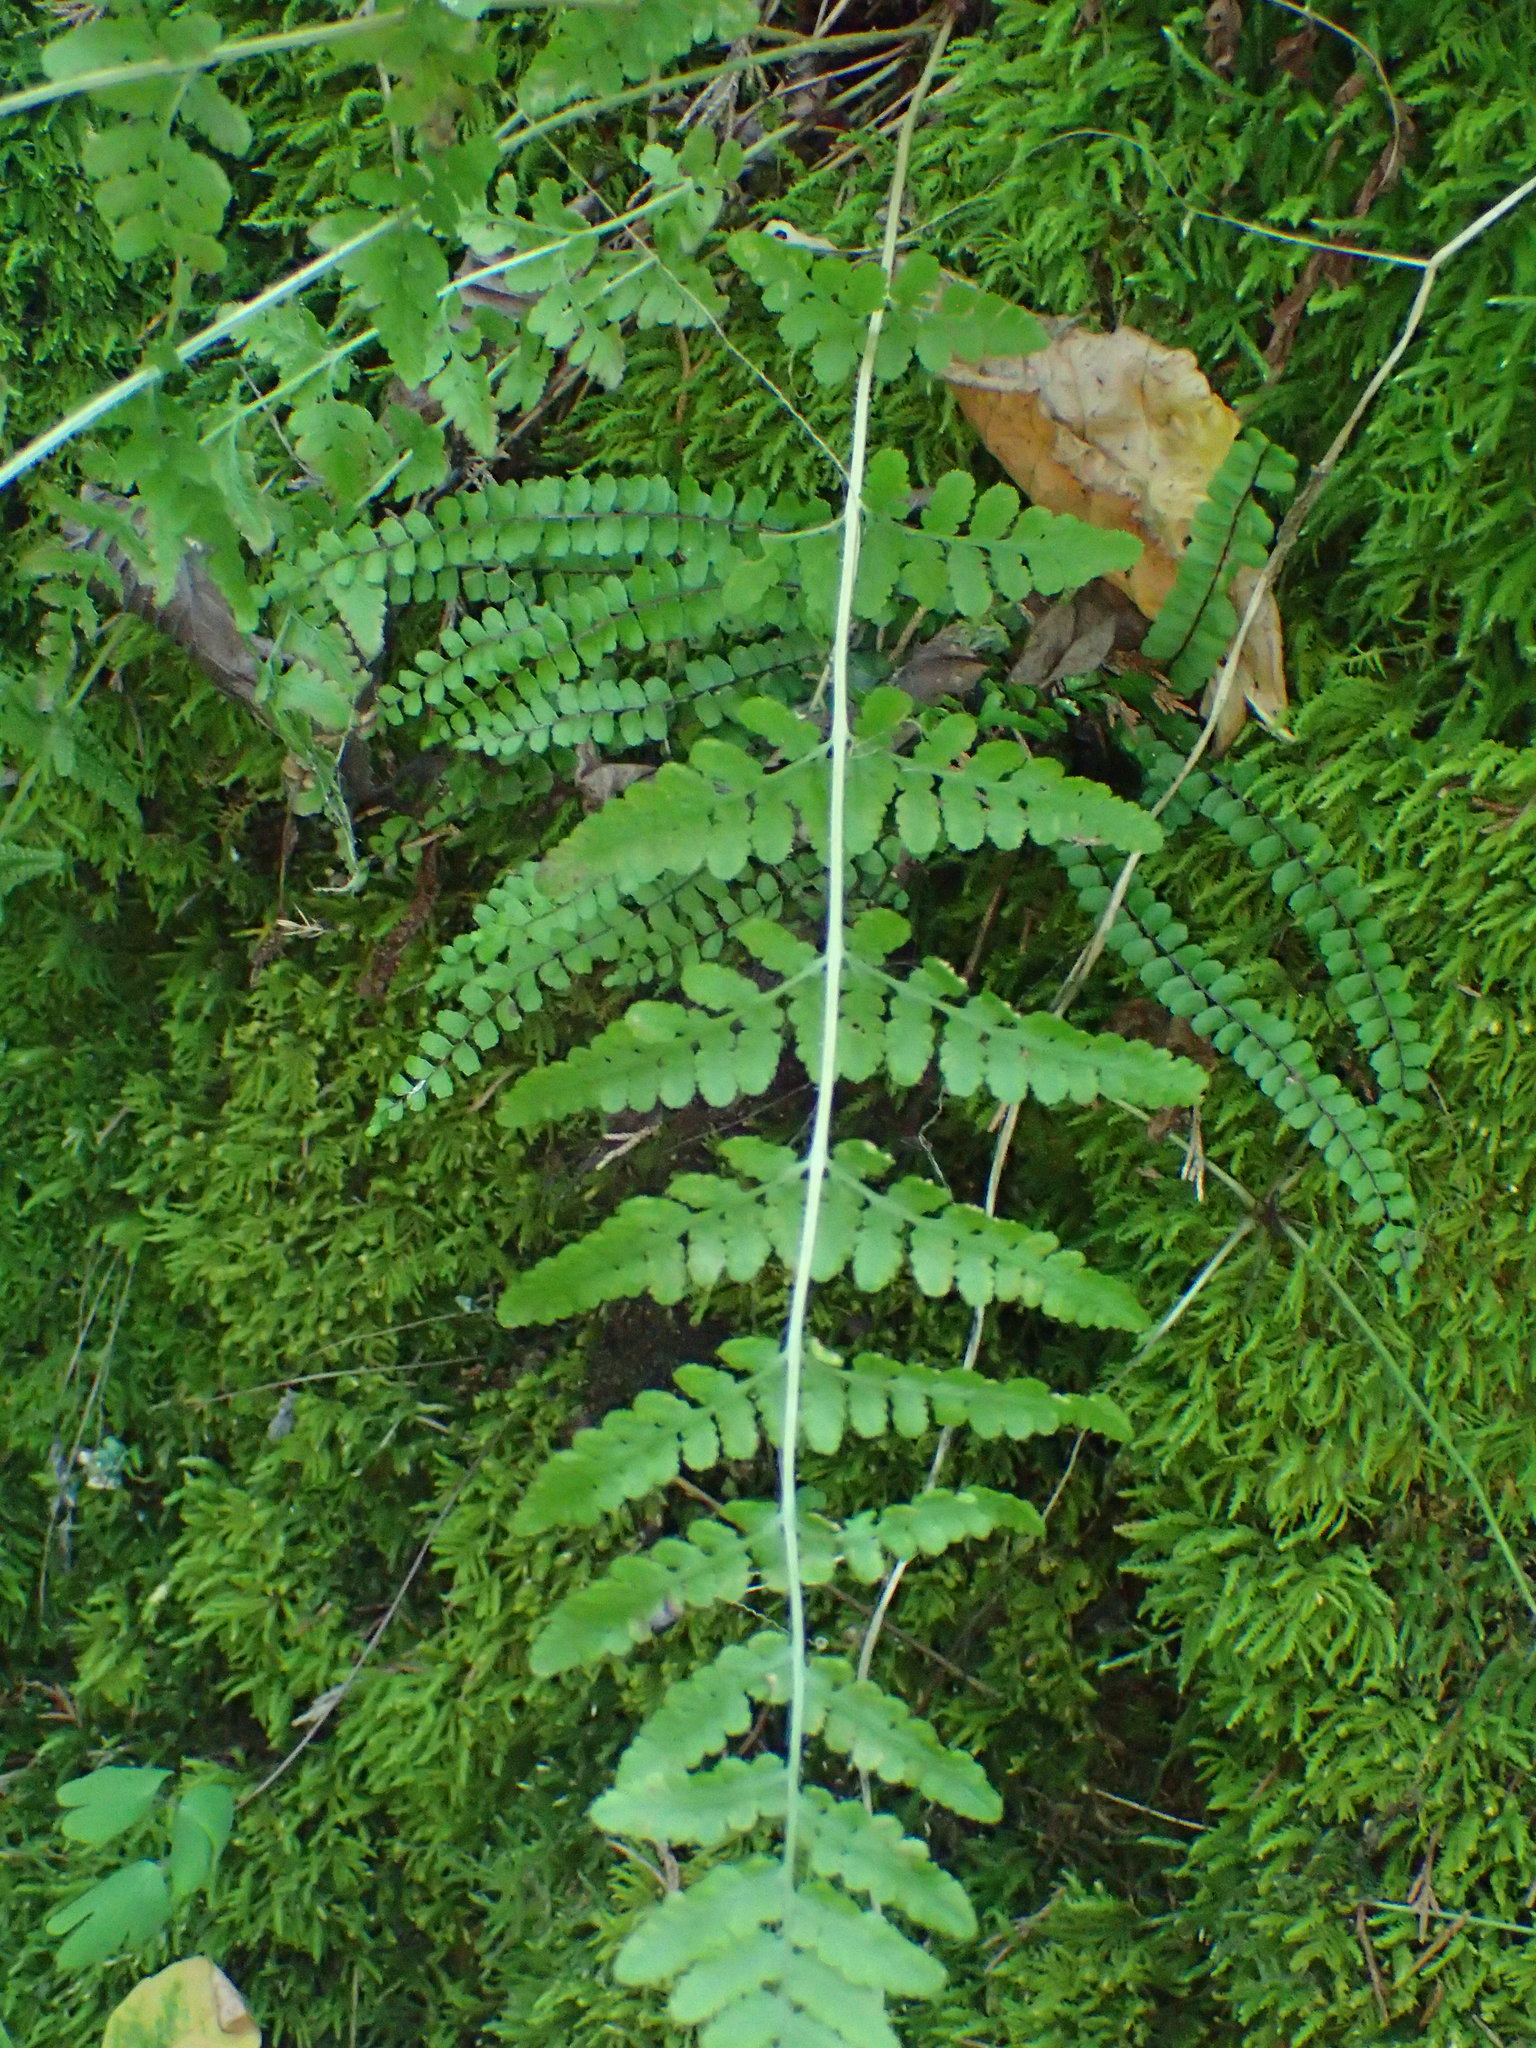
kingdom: Plantae
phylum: Tracheophyta
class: Polypodiopsida
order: Polypodiales
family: Woodsiaceae
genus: Physematium
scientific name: Physematium obtusum
